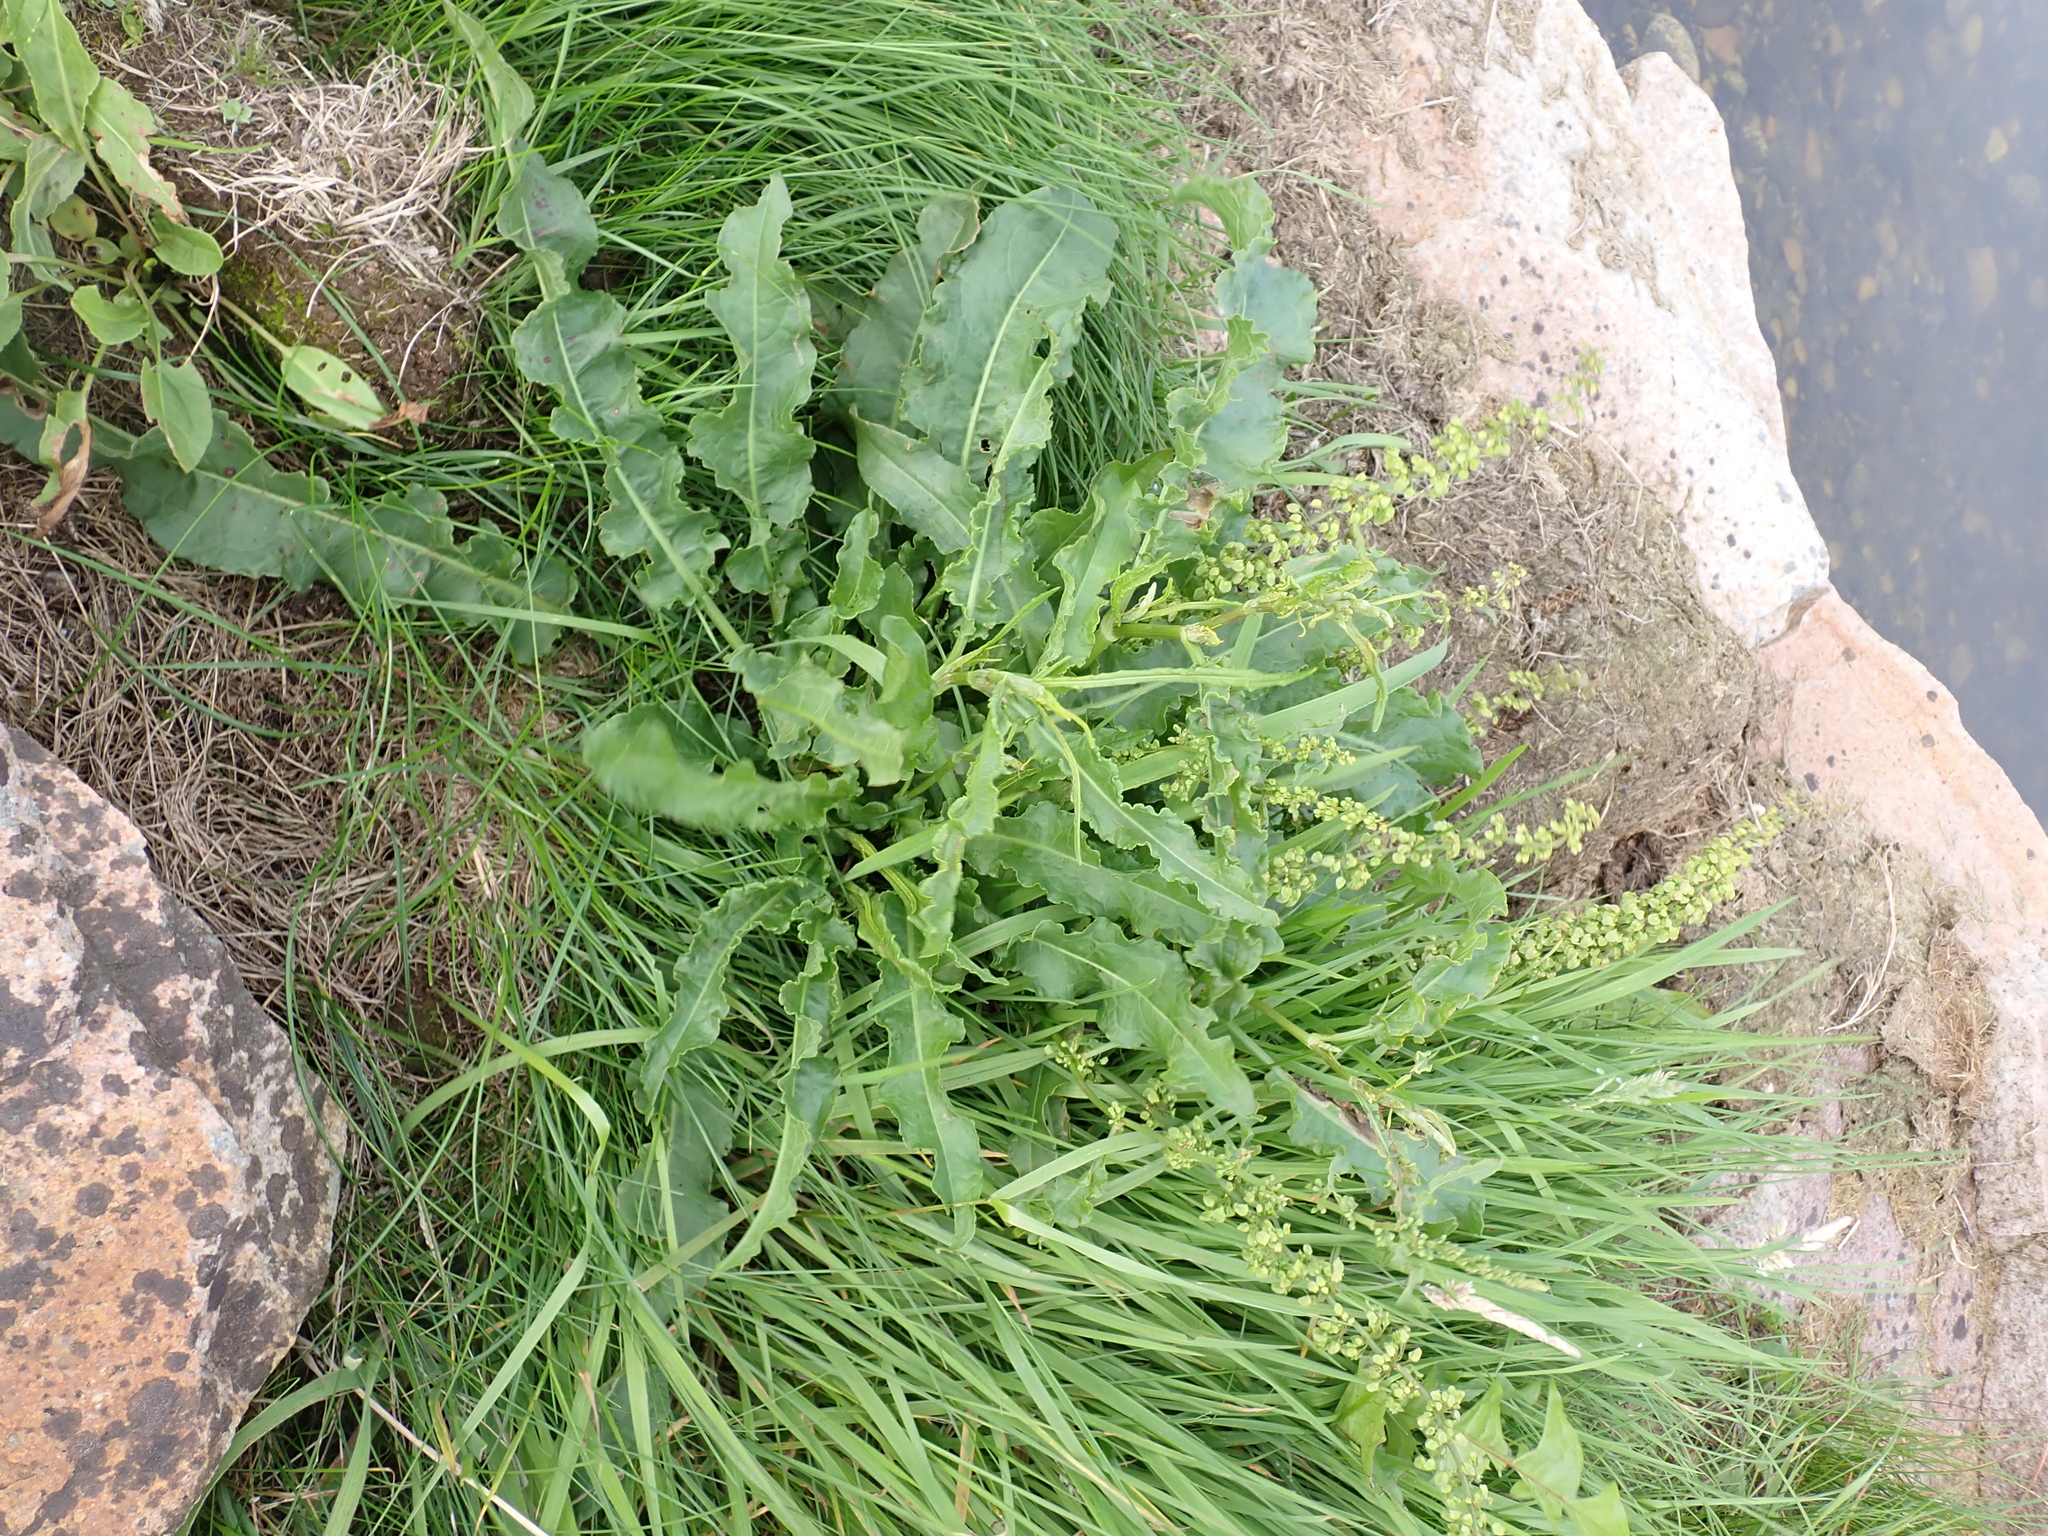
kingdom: Plantae
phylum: Tracheophyta
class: Magnoliopsida
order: Caryophyllales
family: Polygonaceae
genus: Rumex
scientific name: Rumex crispus
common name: Curled dock
